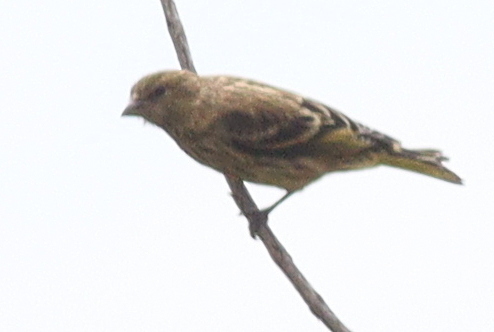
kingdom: Animalia
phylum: Chordata
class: Aves
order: Passeriformes
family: Fringillidae
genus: Serinus
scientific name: Serinus flavivertex
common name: Yellow-crowned canary
